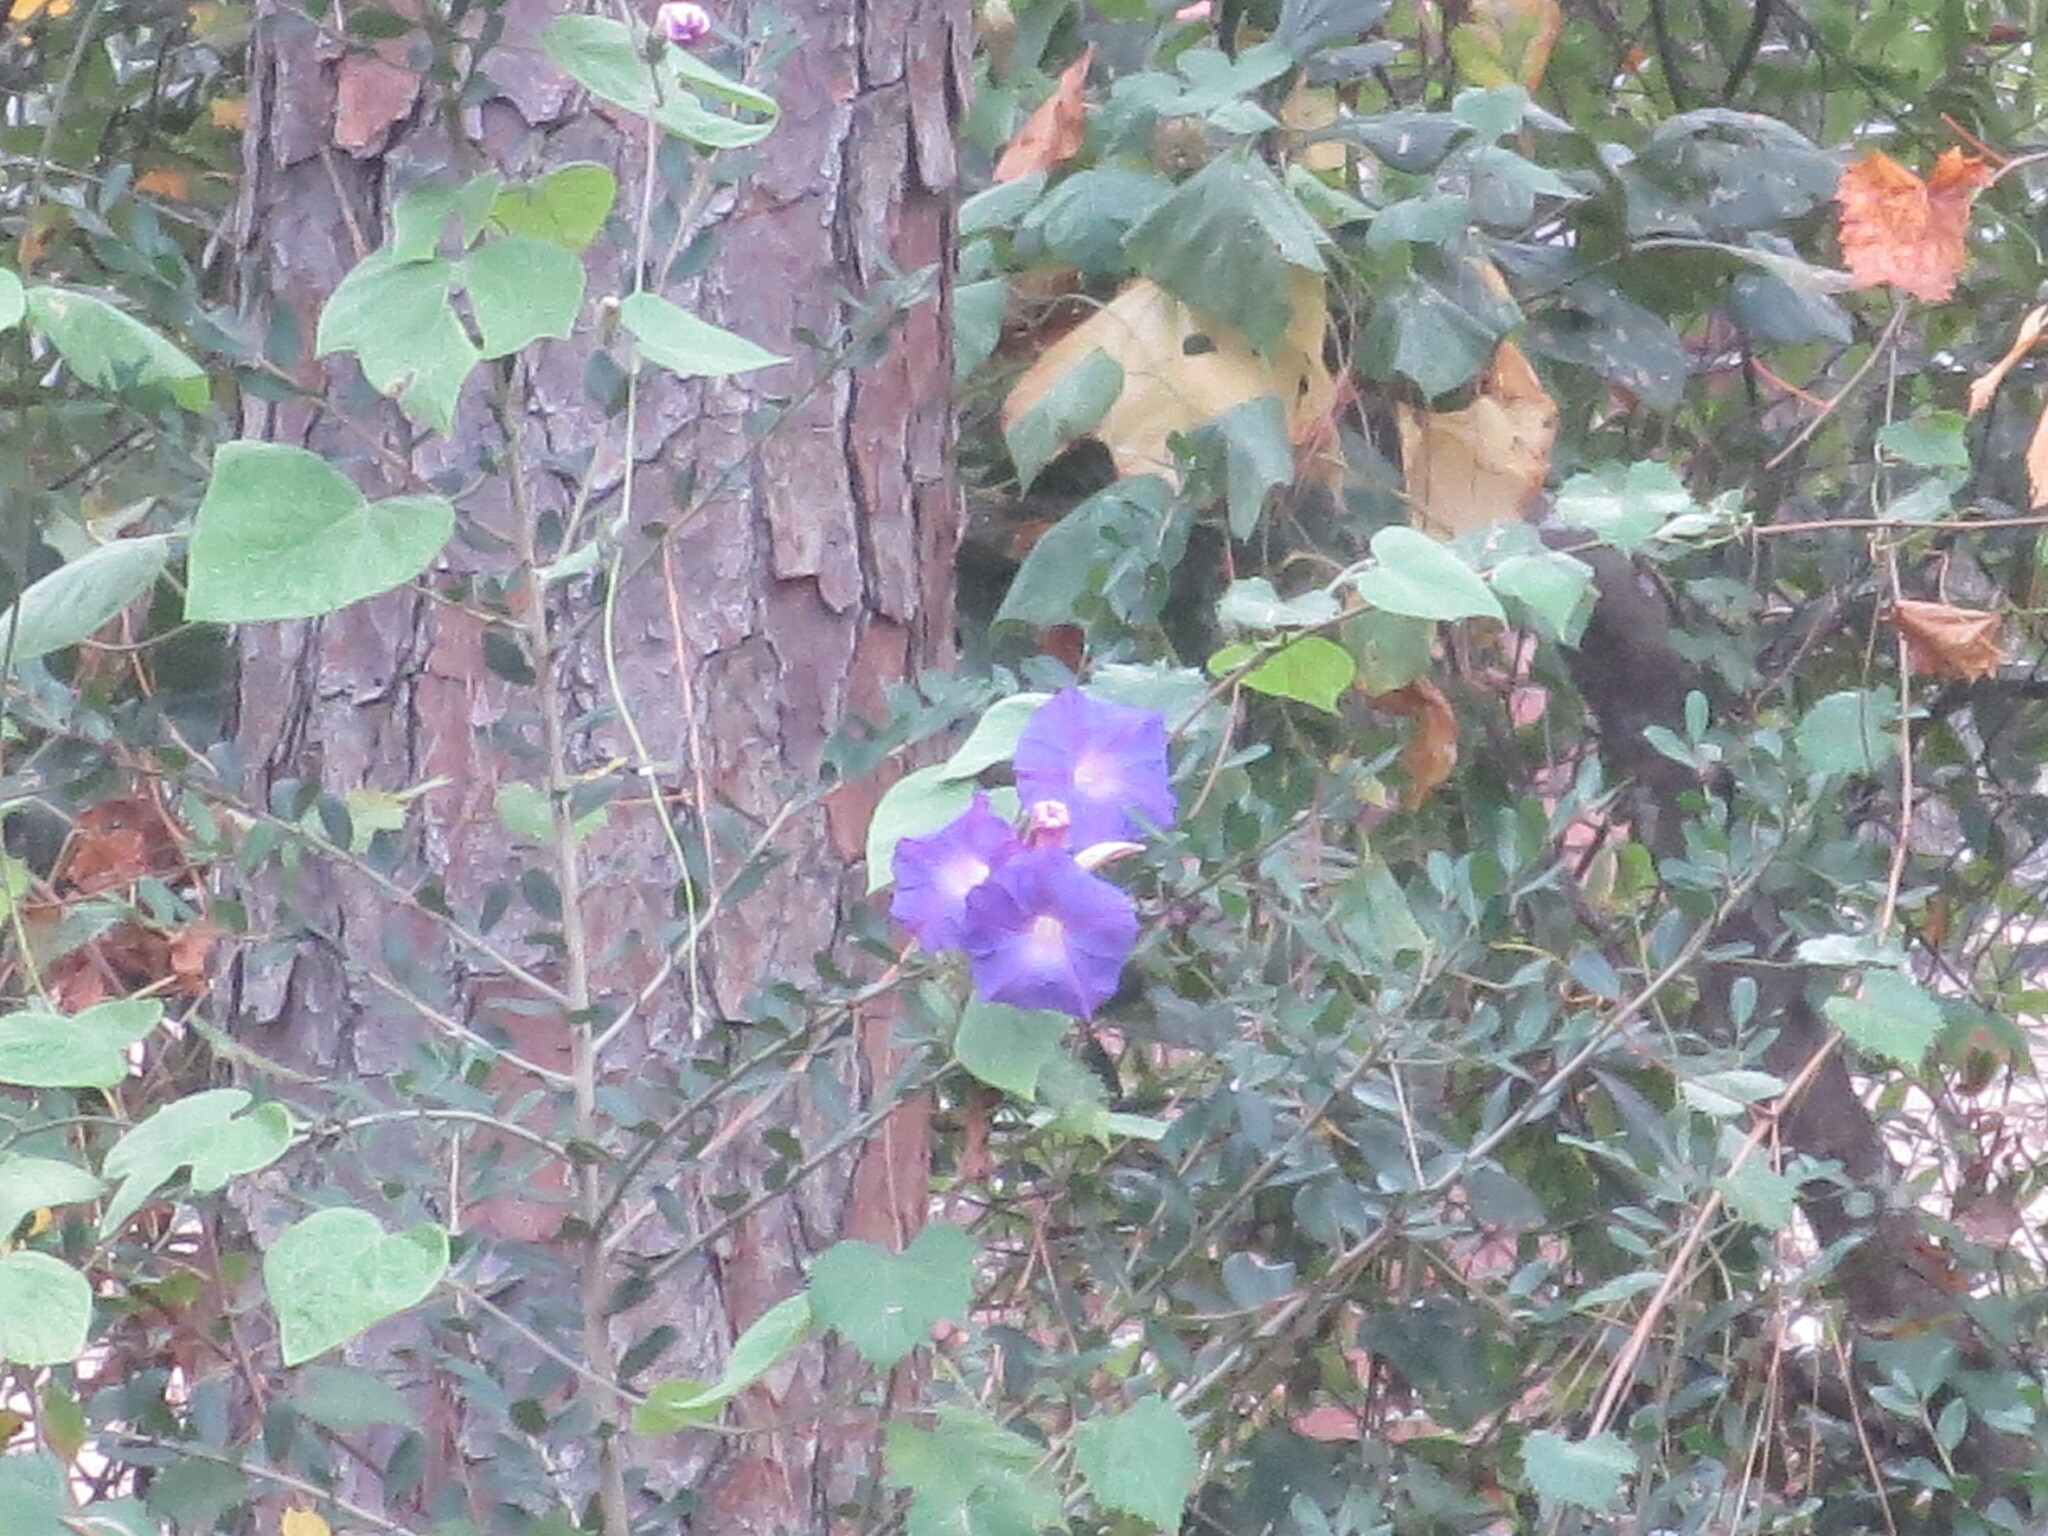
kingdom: Plantae
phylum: Tracheophyta
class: Magnoliopsida
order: Solanales
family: Convolvulaceae
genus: Ipomoea
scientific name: Ipomoea indica
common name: Blue dawnflower
